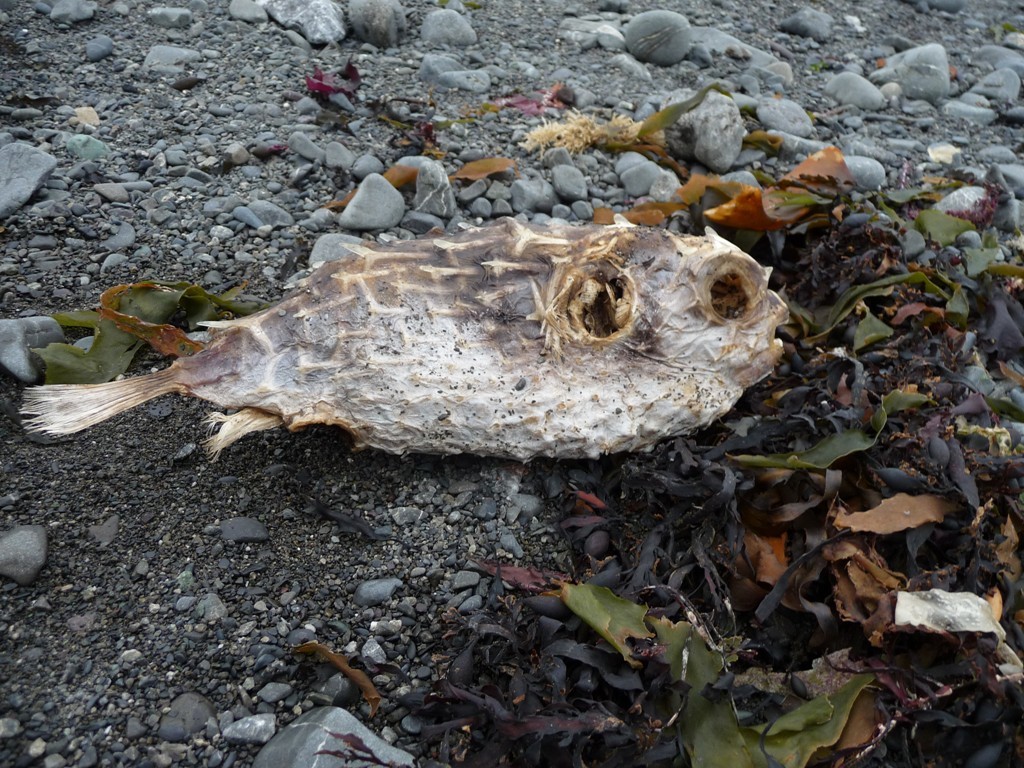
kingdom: Animalia
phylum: Chordata
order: Tetraodontiformes
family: Diodontidae
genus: Allomycterus
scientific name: Allomycterus pilatus
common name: No common name
